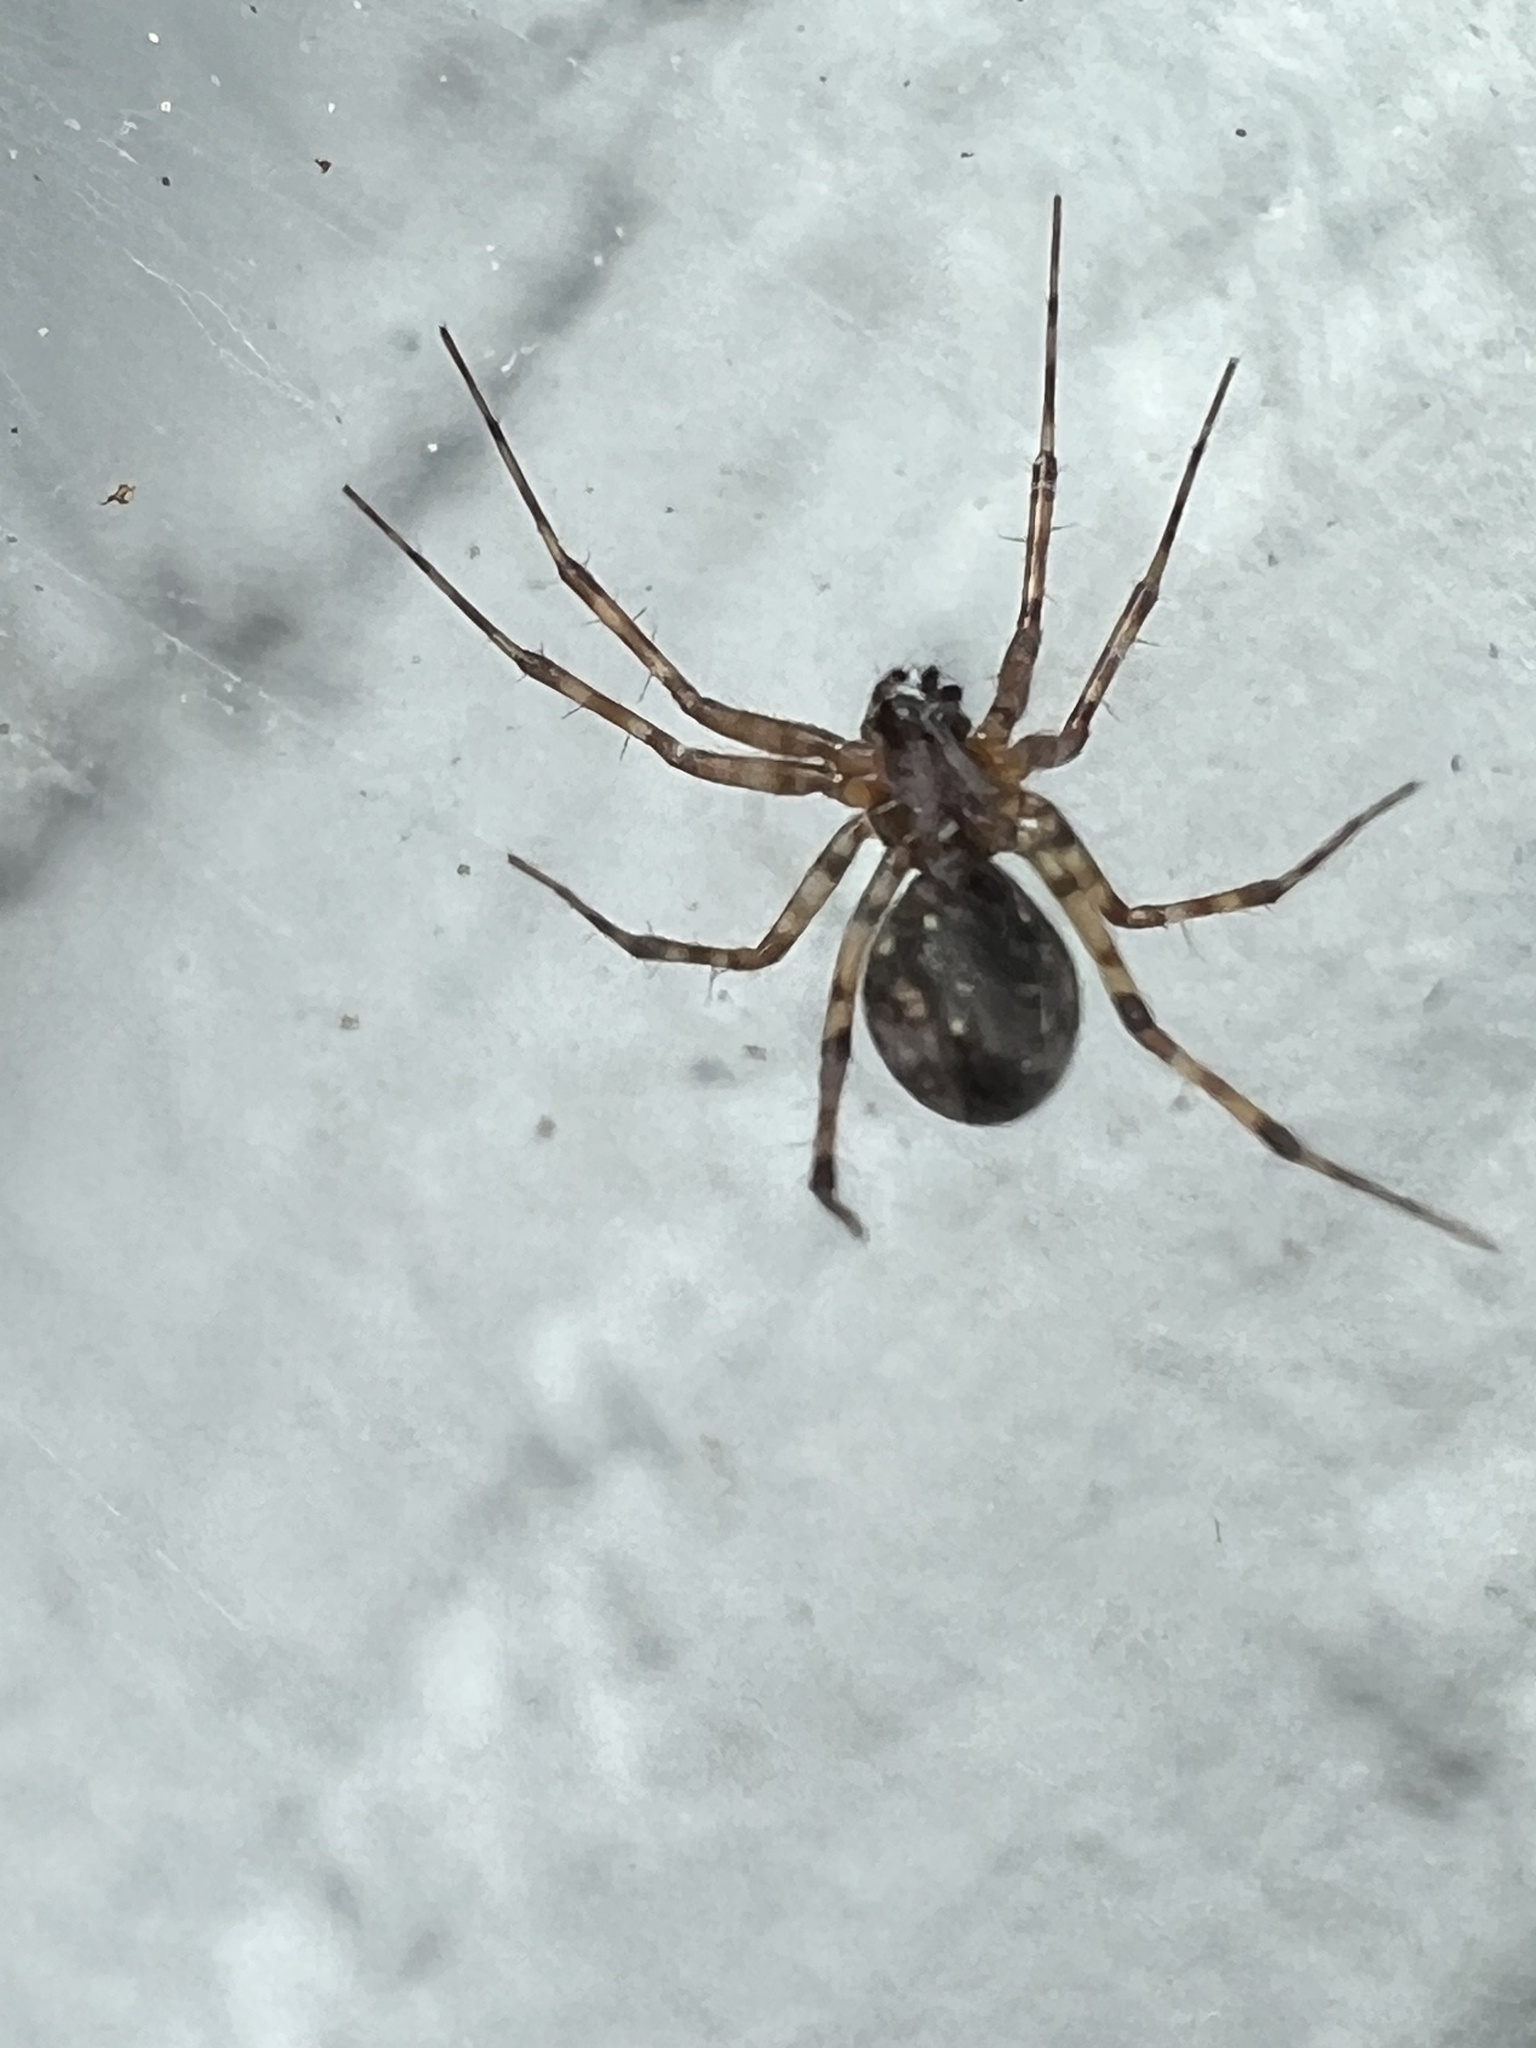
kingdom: Animalia
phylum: Arthropoda
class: Arachnida
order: Araneae
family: Linyphiidae
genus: Neriene
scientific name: Neriene digna
